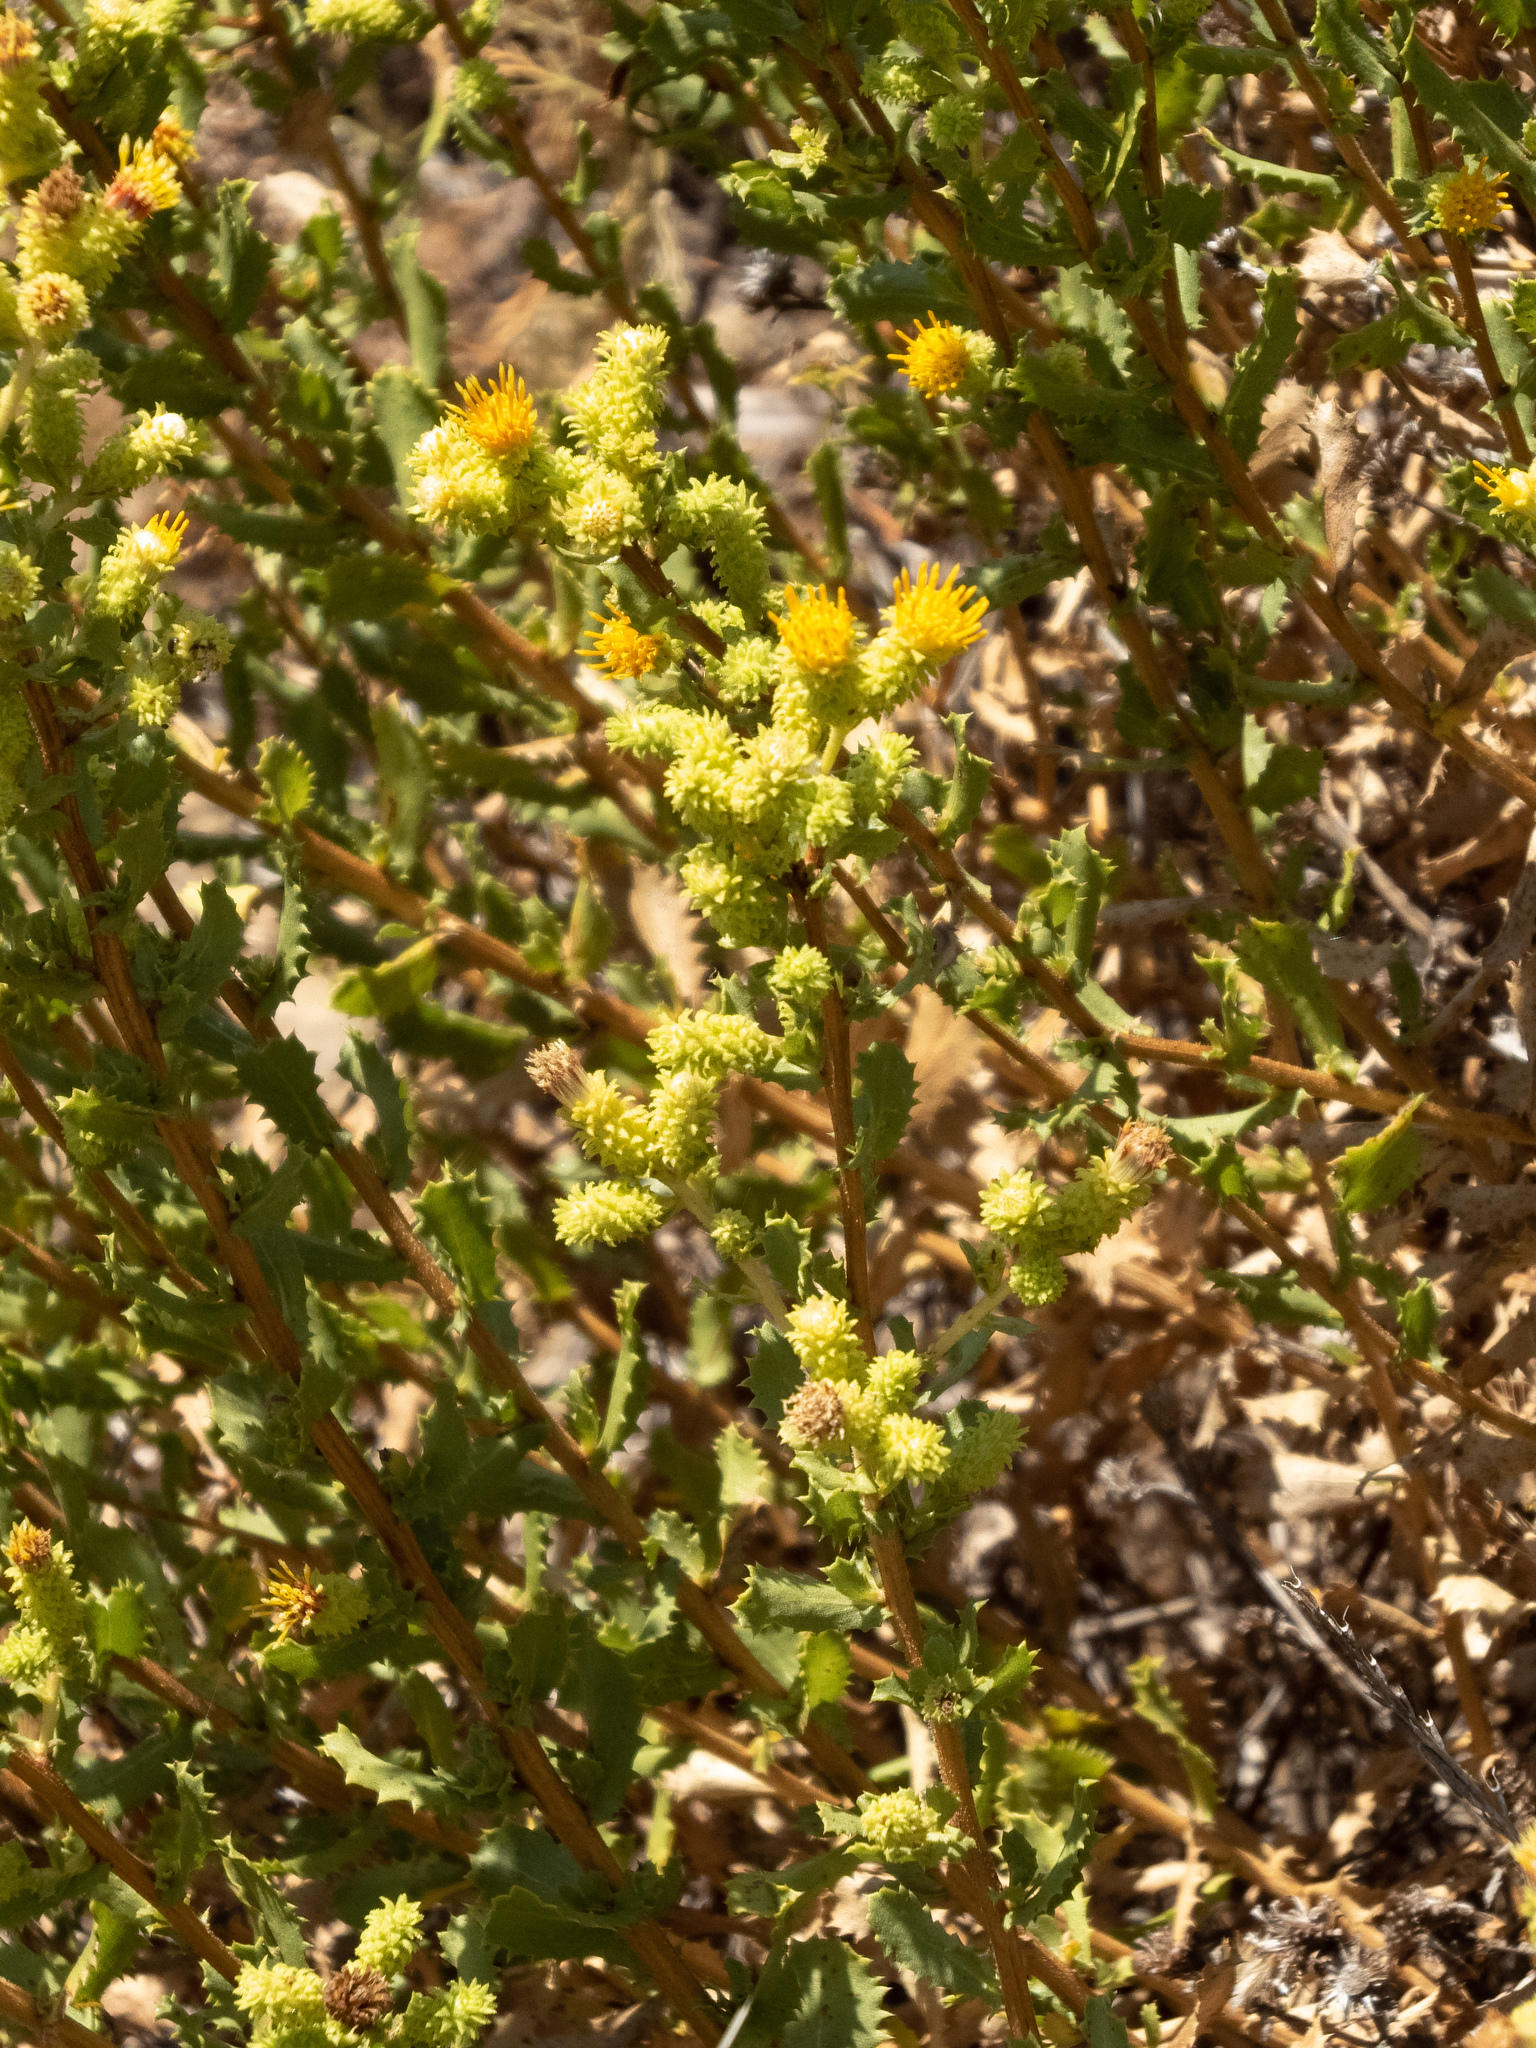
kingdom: Plantae
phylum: Tracheophyta
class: Magnoliopsida
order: Asterales
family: Asteraceae
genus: Hazardia
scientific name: Hazardia squarrosa
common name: Saw-tooth goldenbush
